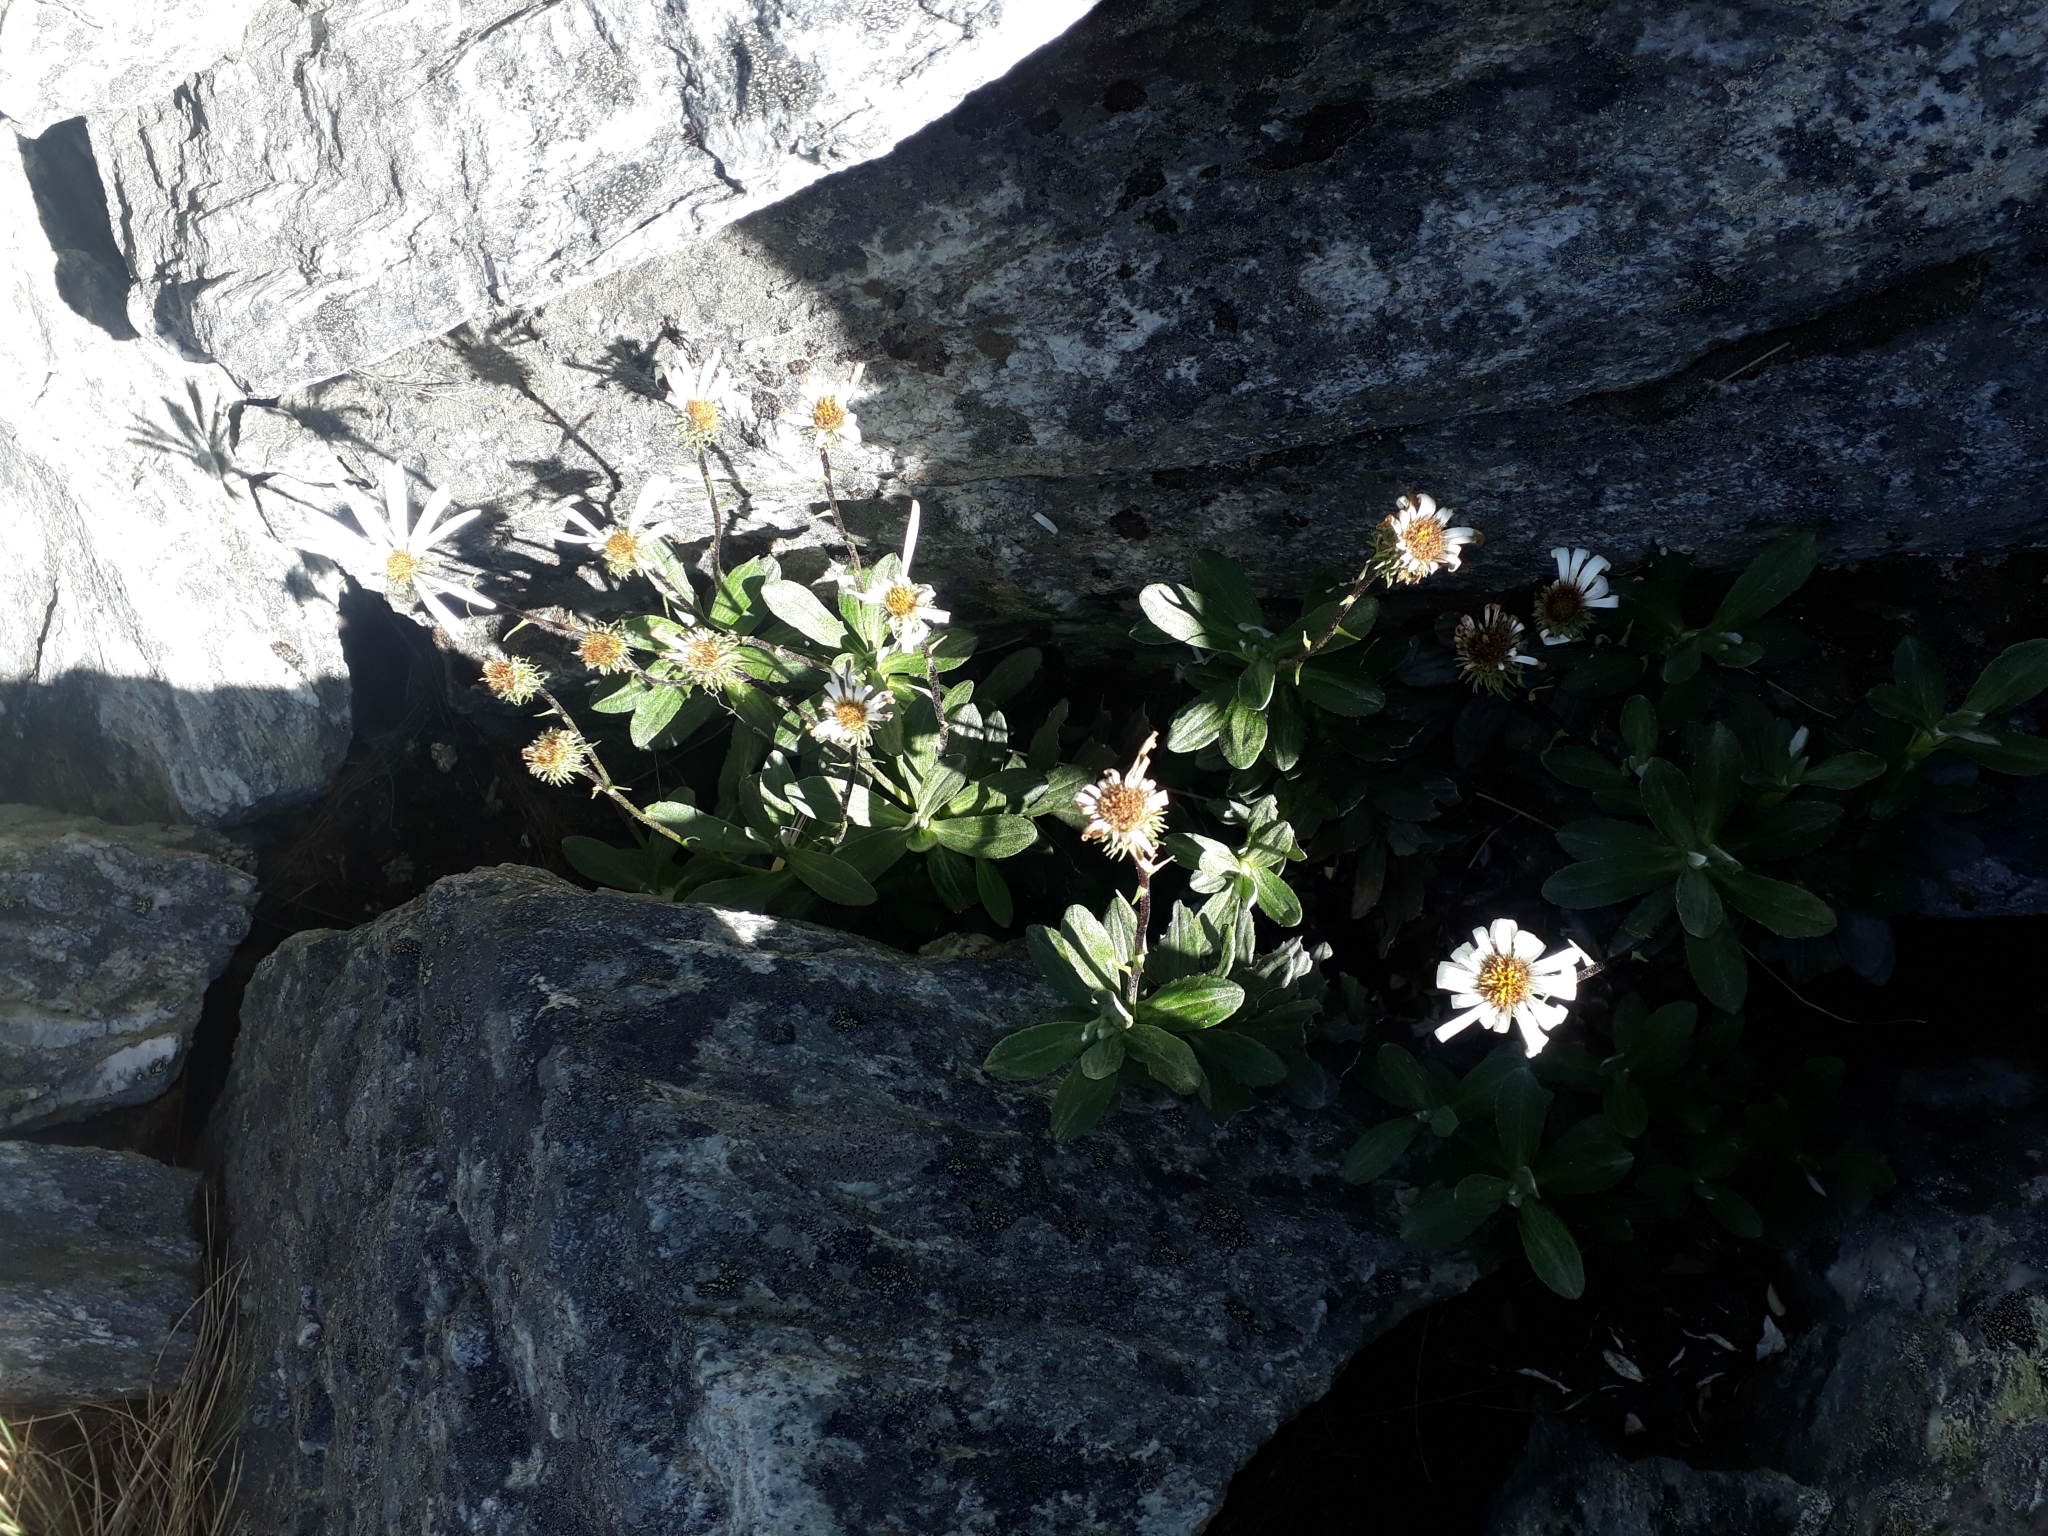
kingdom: Plantae
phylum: Tracheophyta
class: Magnoliopsida
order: Asterales
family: Asteraceae
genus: Celmisia
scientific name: Celmisia brevifolia
